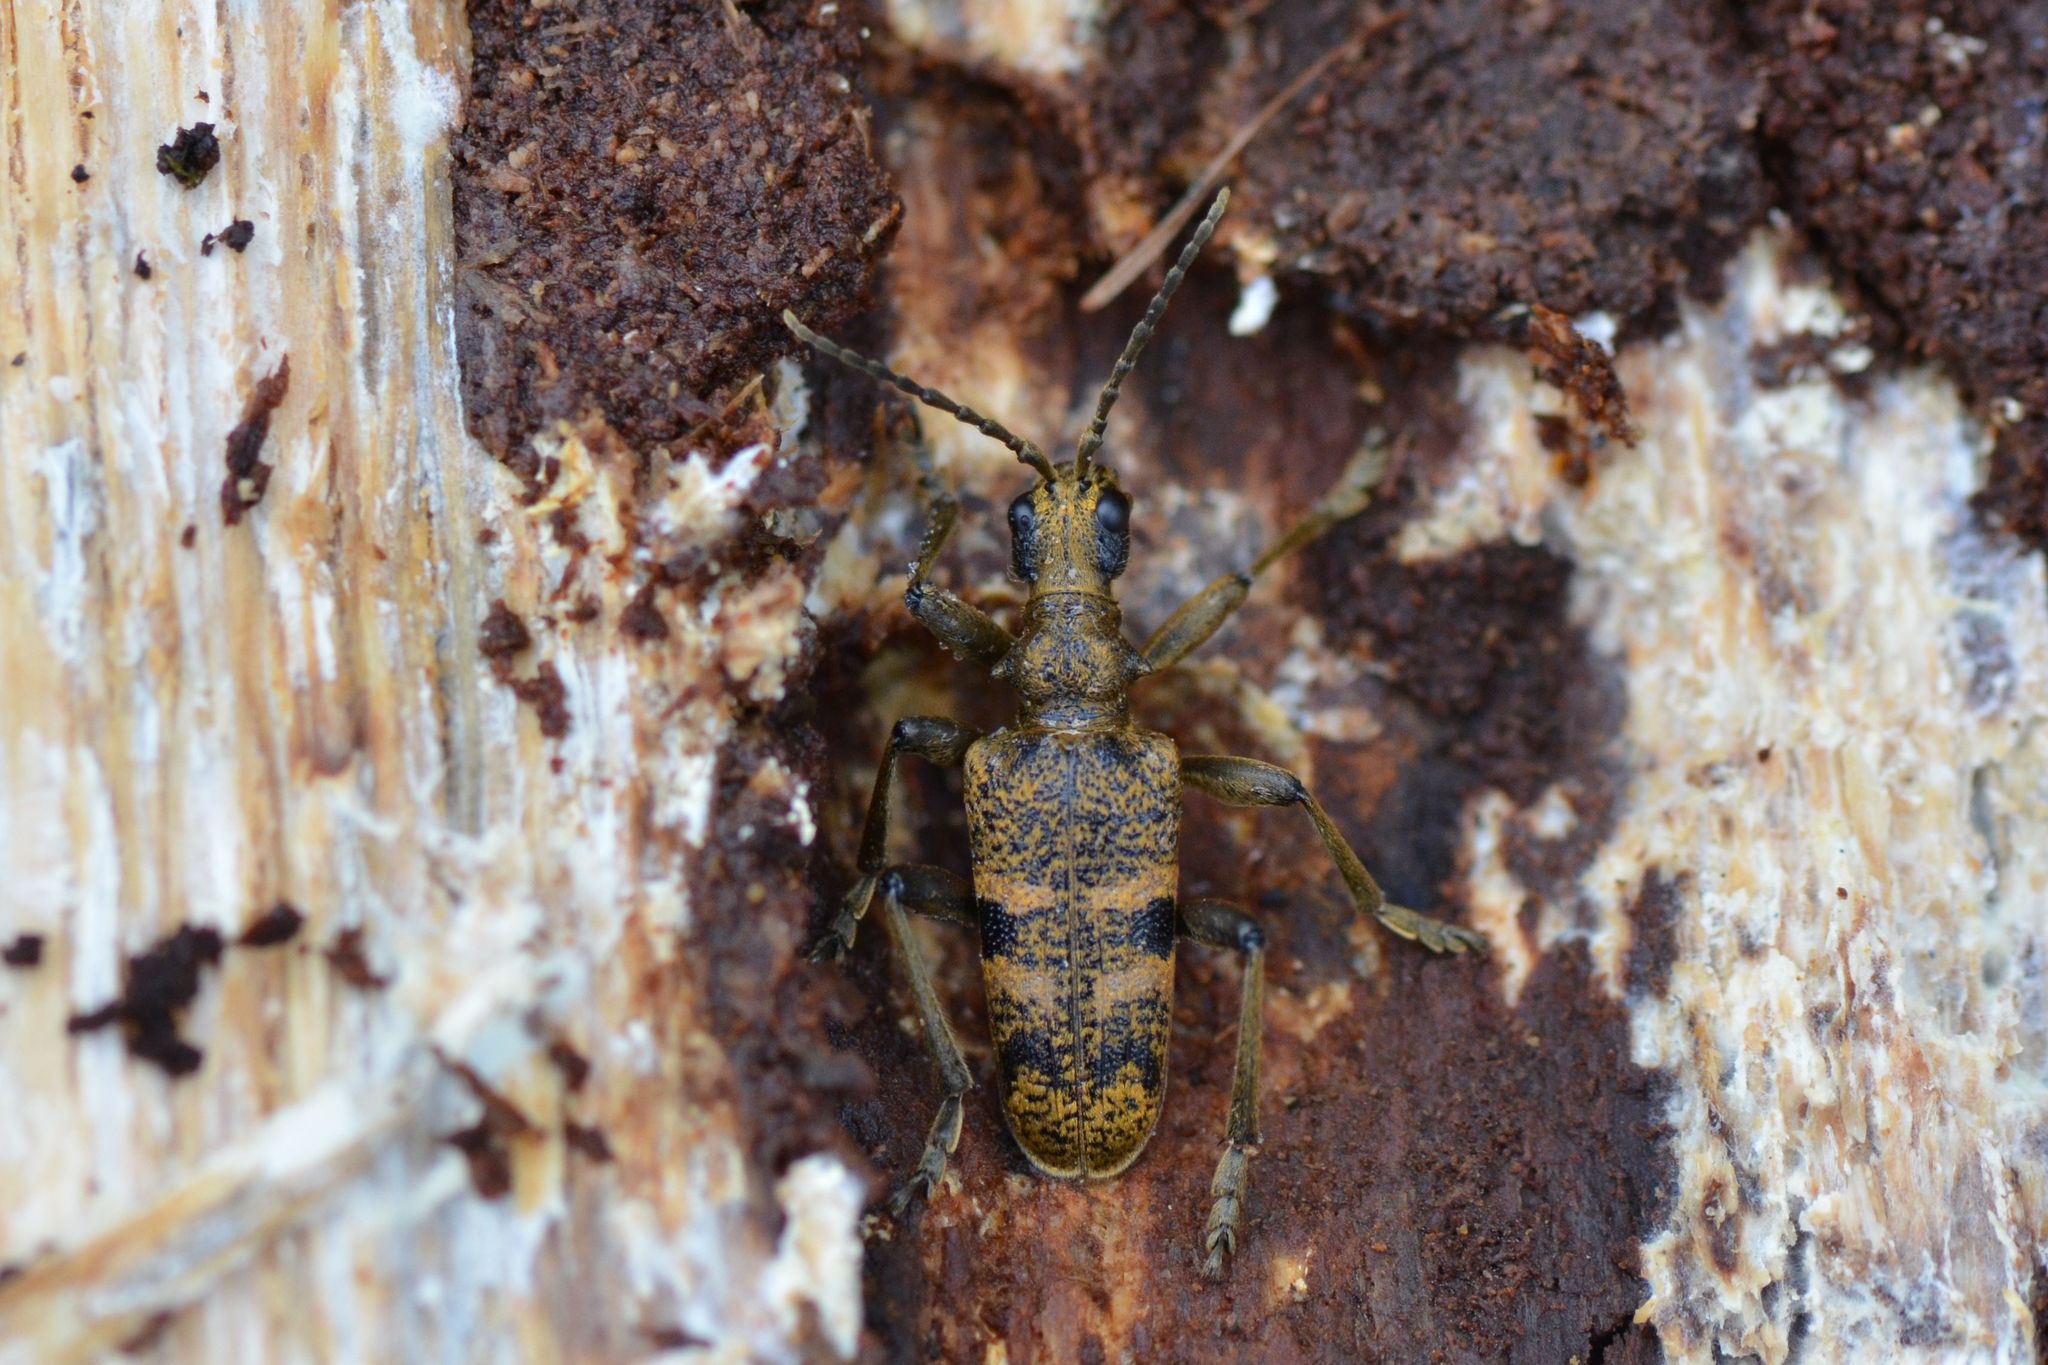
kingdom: Animalia
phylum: Arthropoda
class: Insecta
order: Coleoptera
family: Cerambycidae
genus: Rhagium
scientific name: Rhagium mordax
